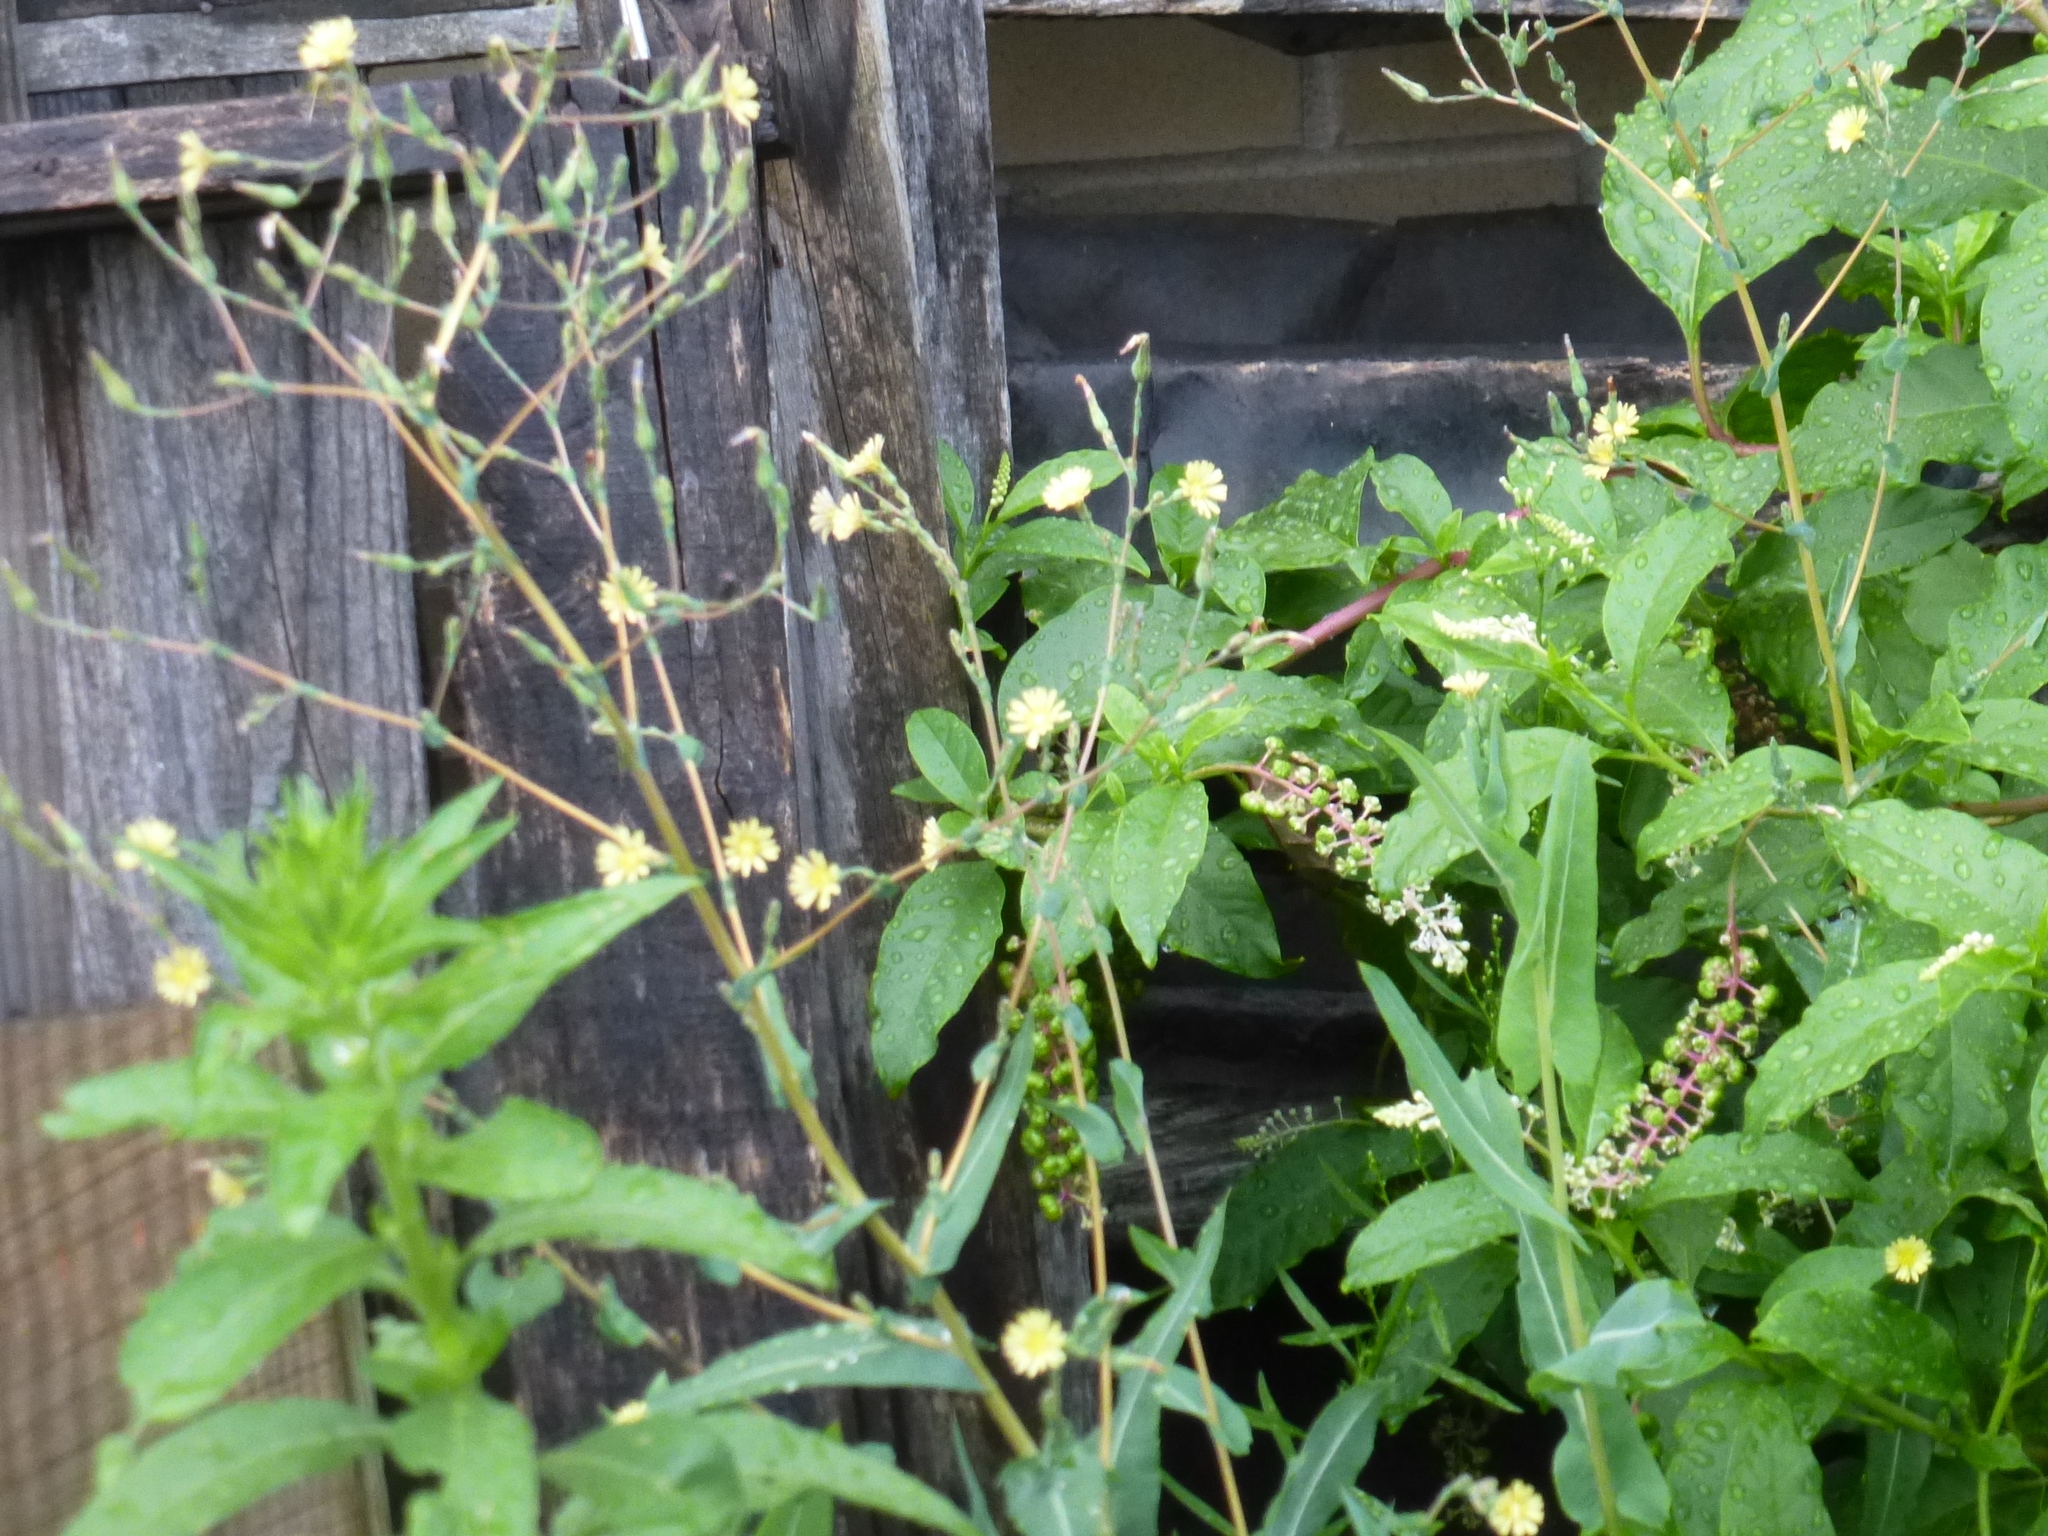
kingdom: Plantae
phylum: Tracheophyta
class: Magnoliopsida
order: Asterales
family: Asteraceae
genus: Lactuca
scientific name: Lactuca serriola
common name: Prickly lettuce
